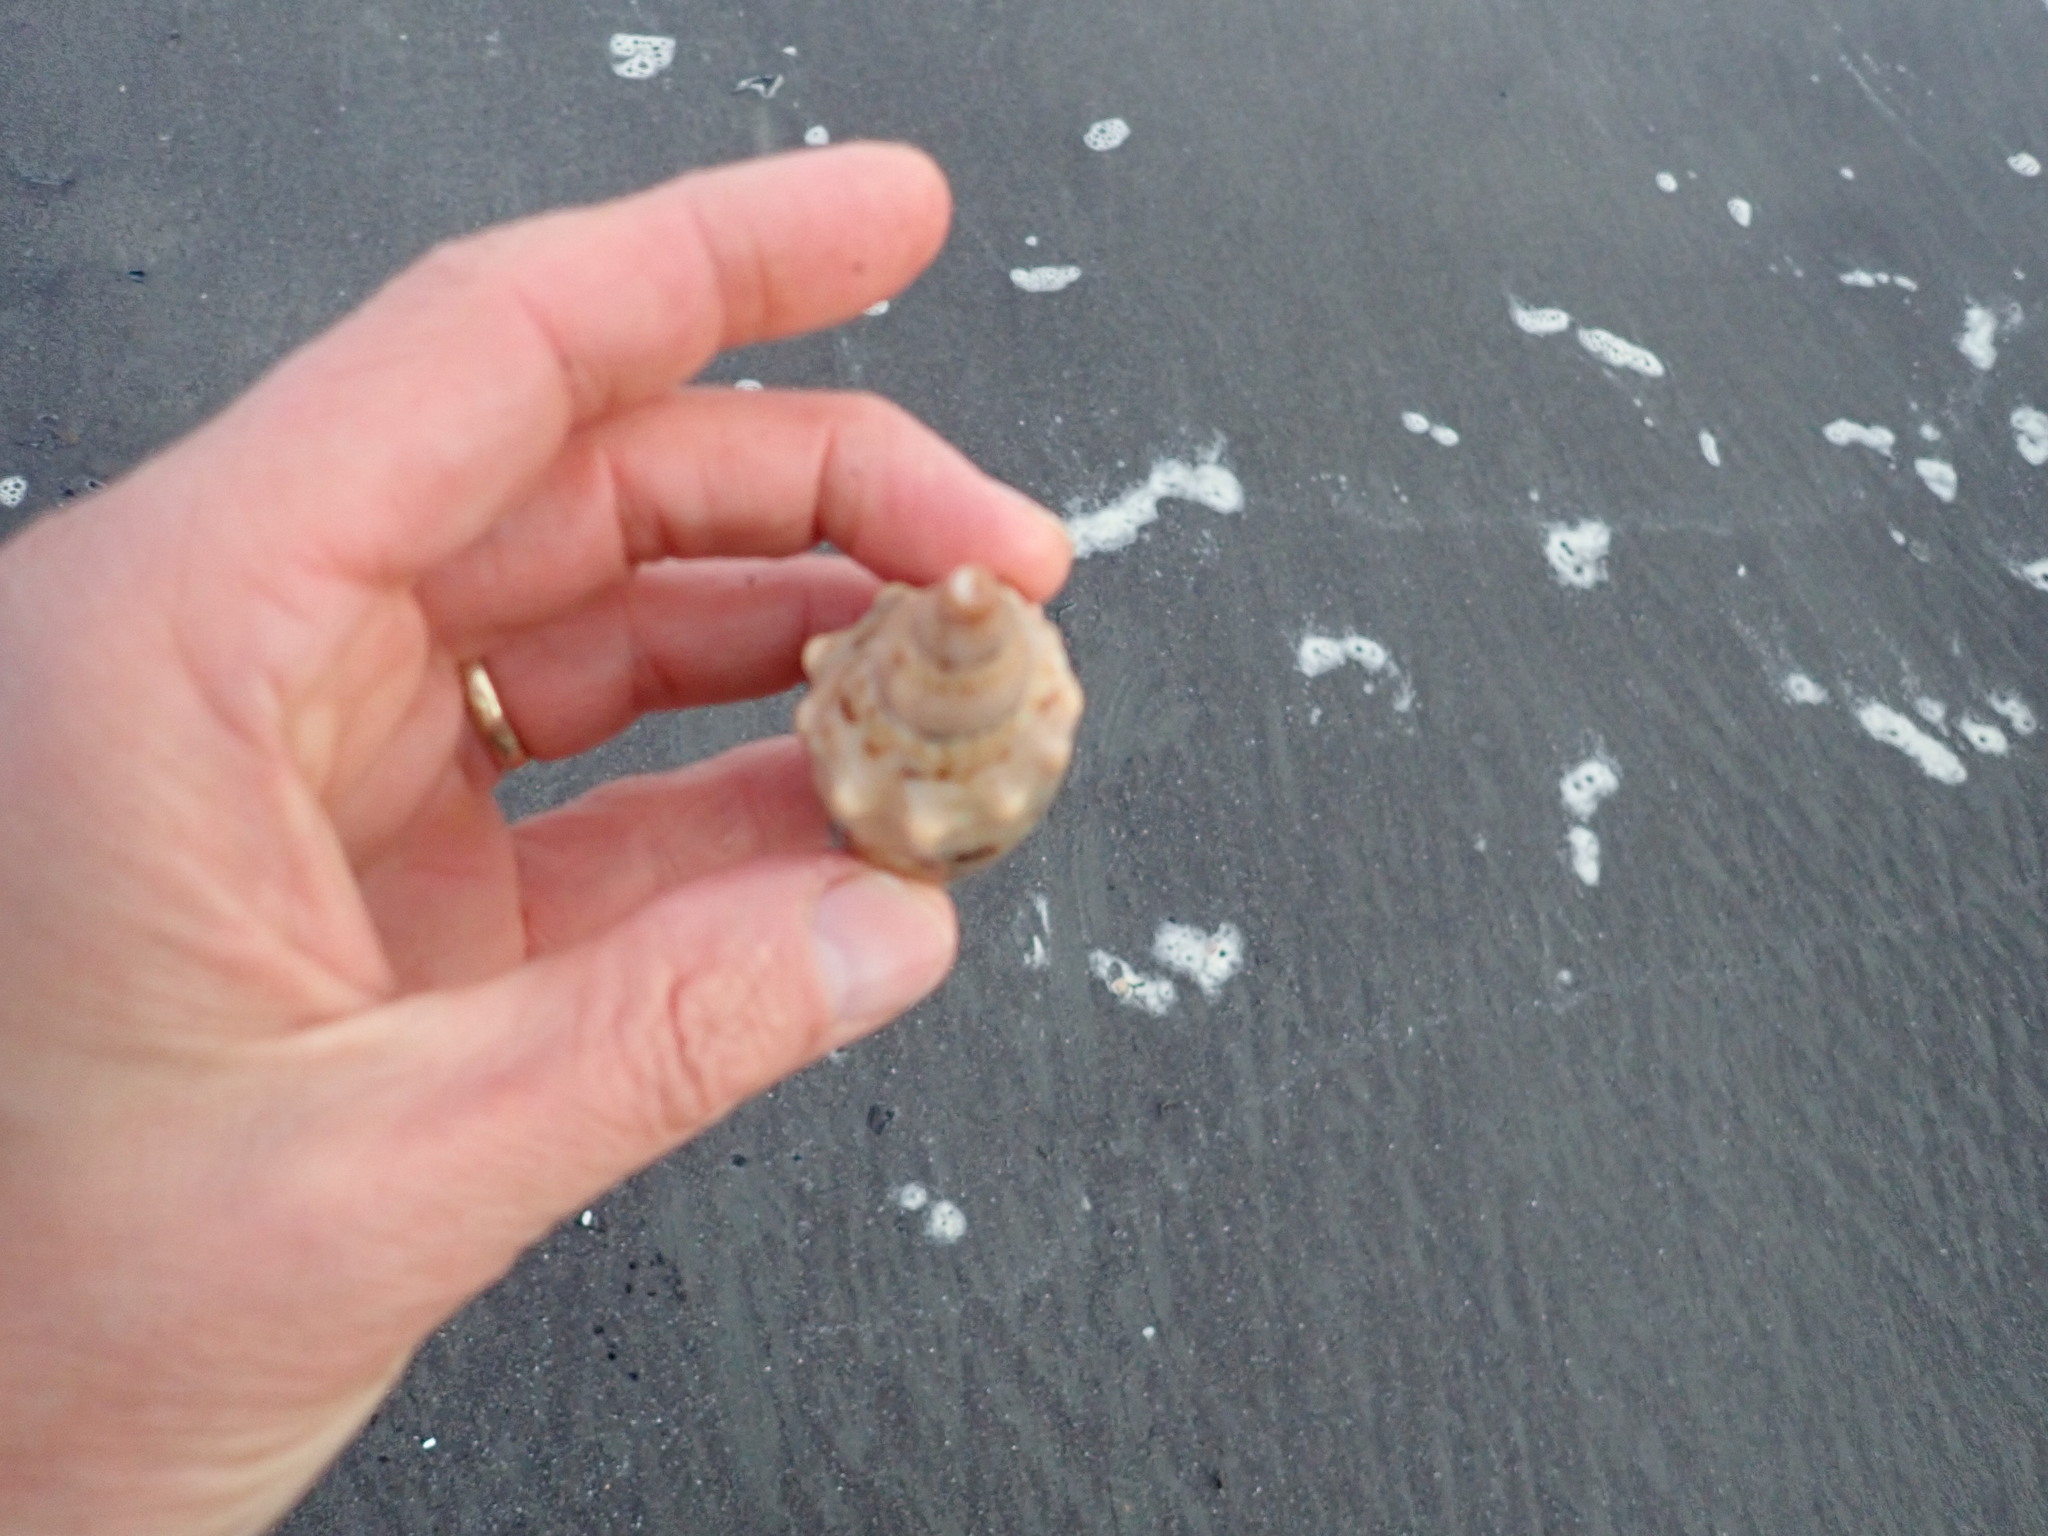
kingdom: Animalia
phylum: Mollusca
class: Gastropoda
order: Neogastropoda
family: Volutidae
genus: Alcithoe
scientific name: Alcithoe arabica
